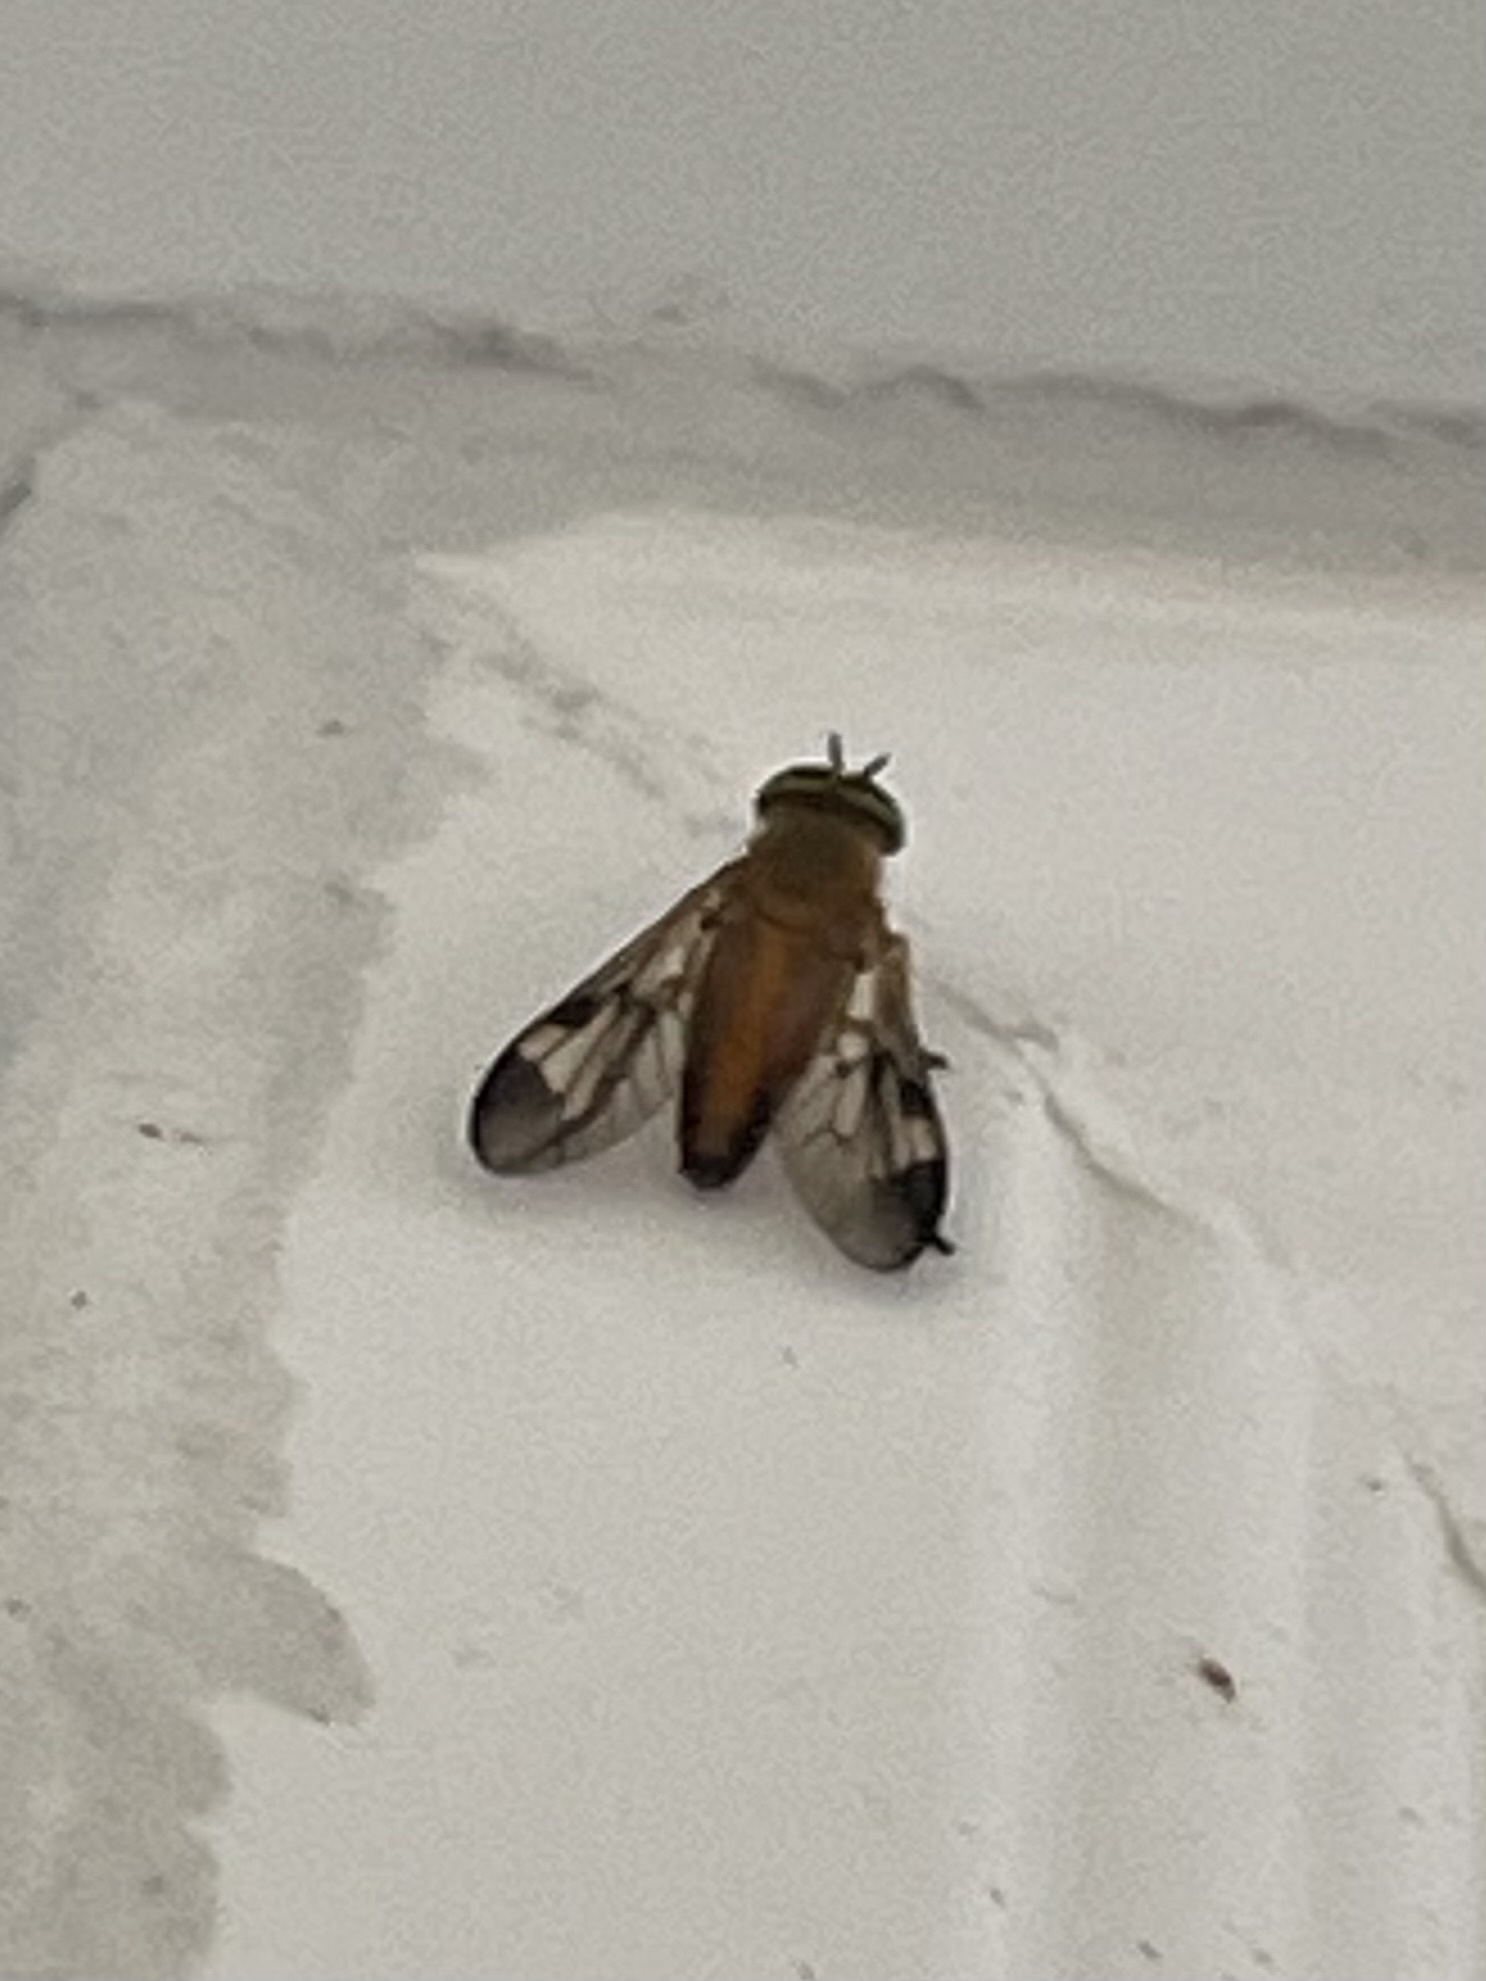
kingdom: Animalia
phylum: Arthropoda
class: Insecta
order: Diptera
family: Tabanidae
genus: Diachlorus
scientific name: Diachlorus ferrugatus
